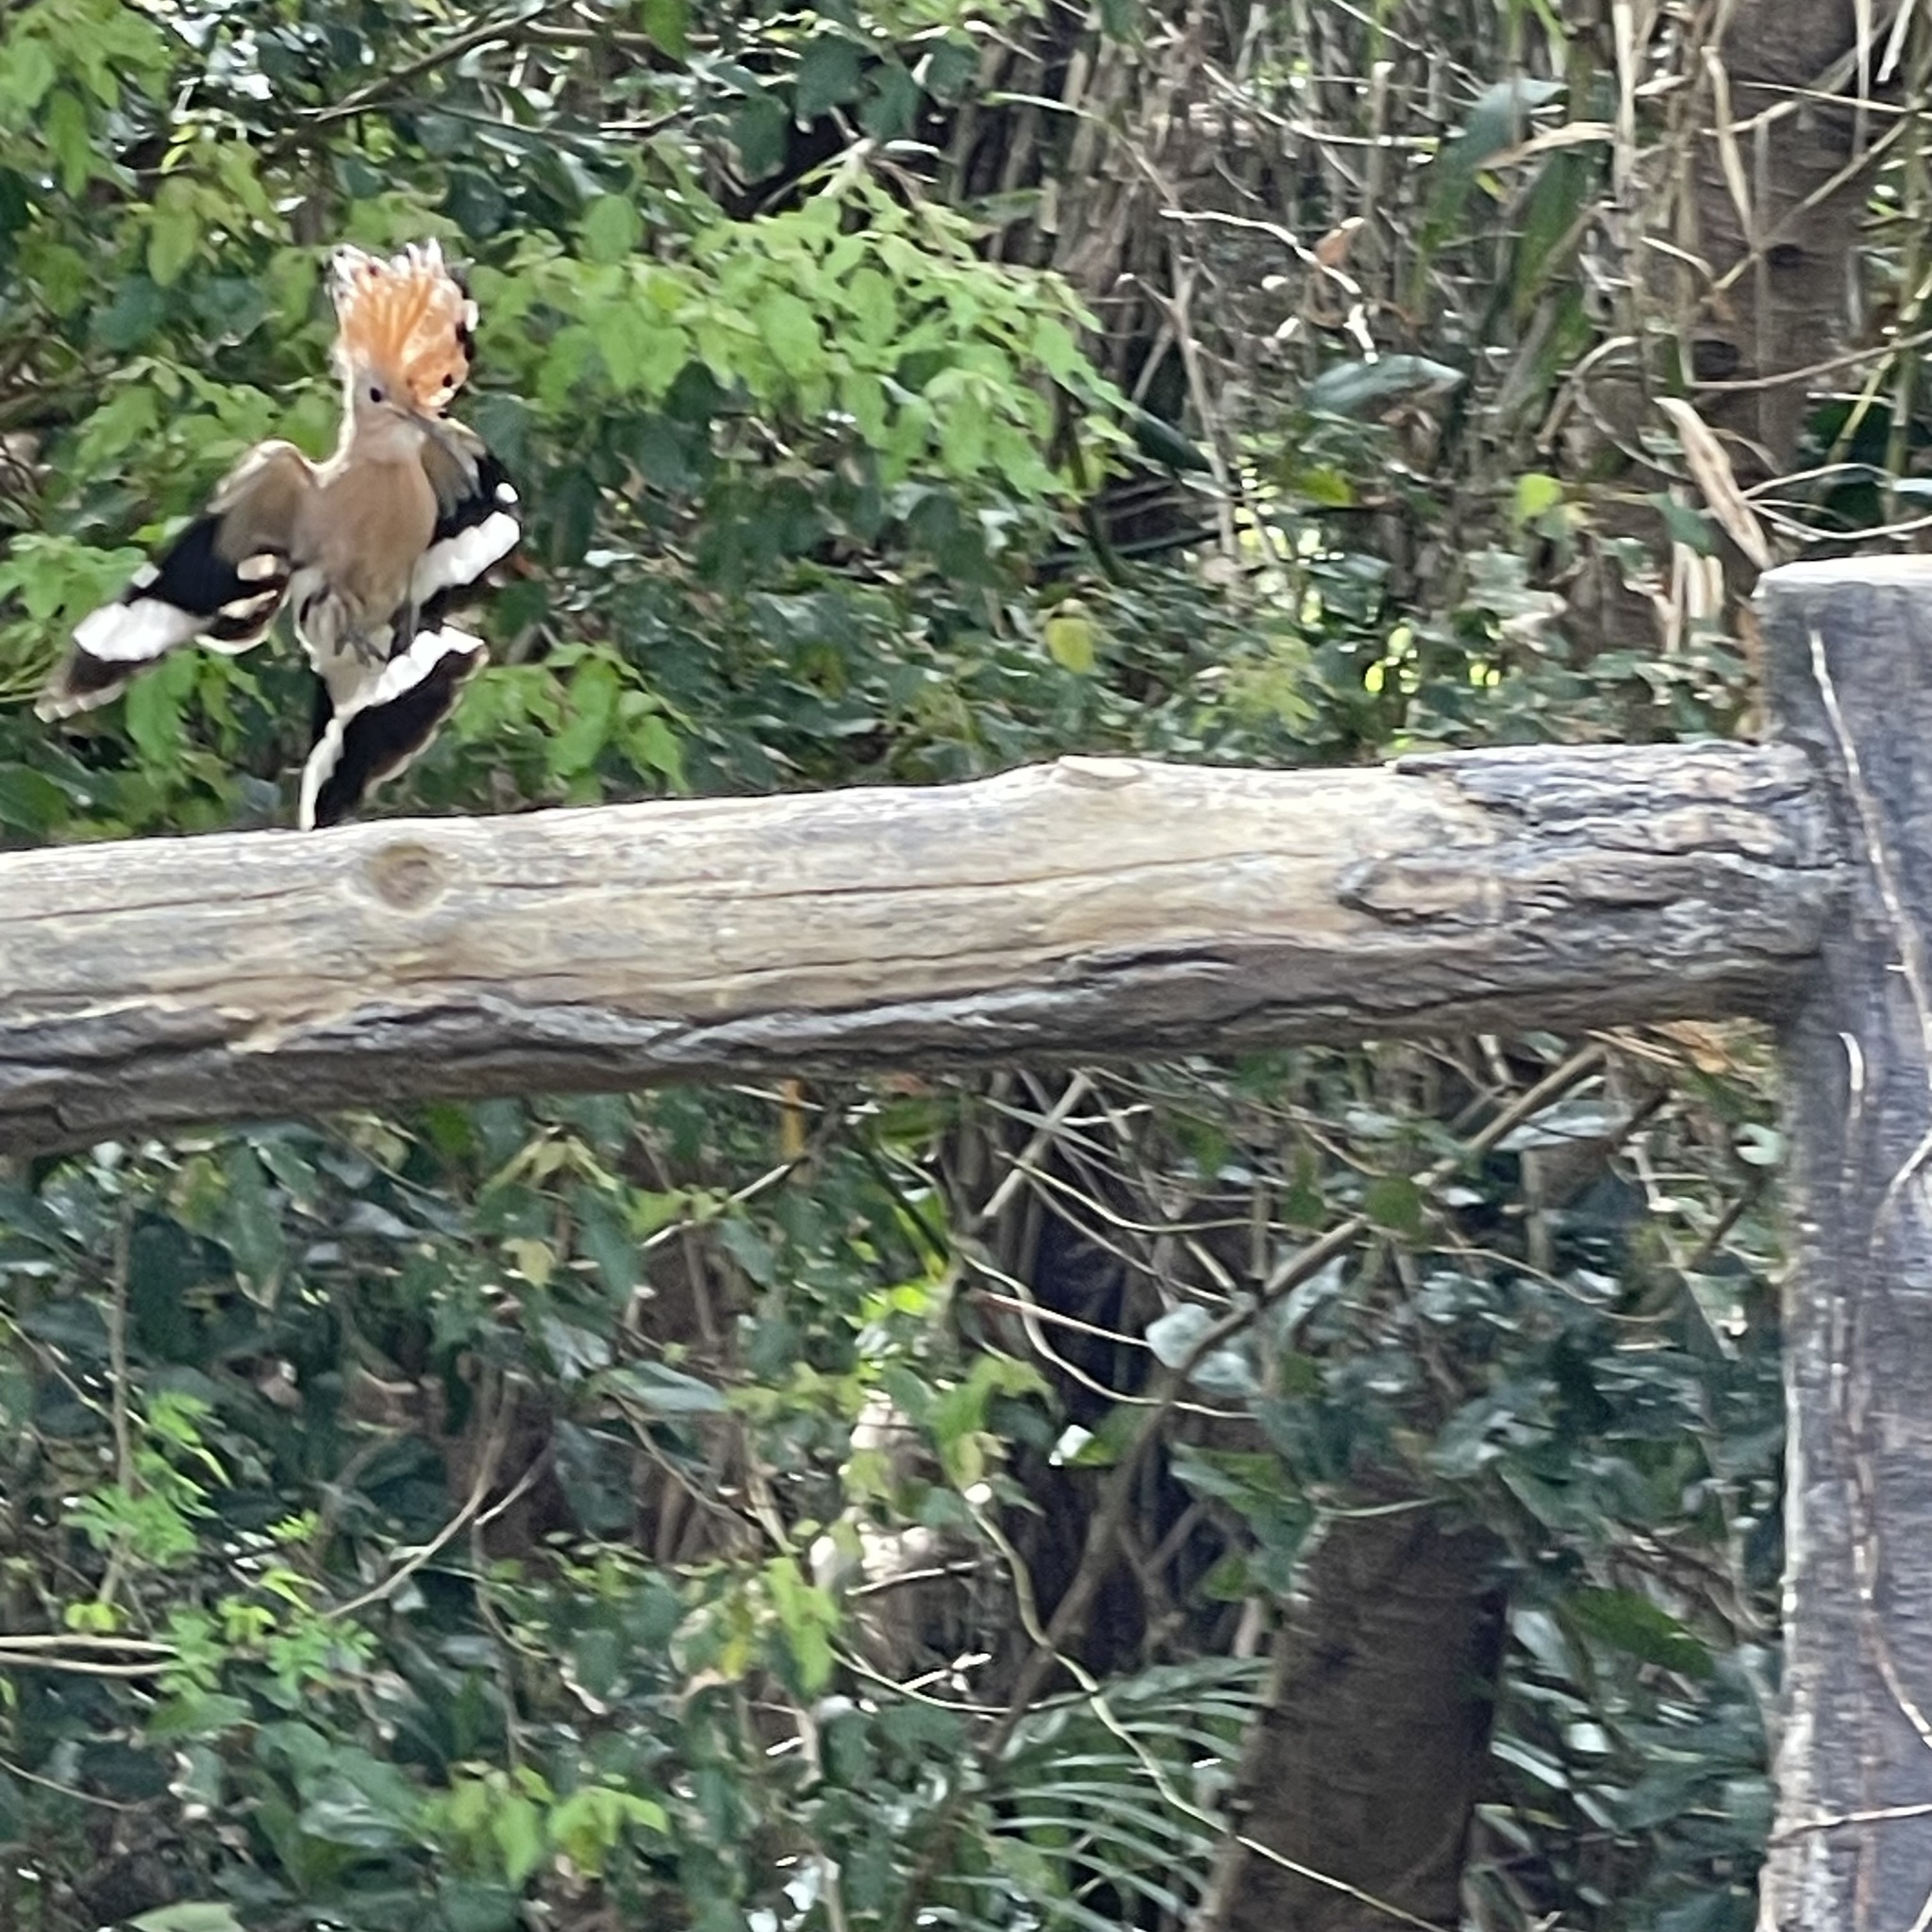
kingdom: Animalia
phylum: Chordata
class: Aves
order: Bucerotiformes
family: Upupidae
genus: Upupa
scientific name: Upupa epops
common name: Eurasian hoopoe
